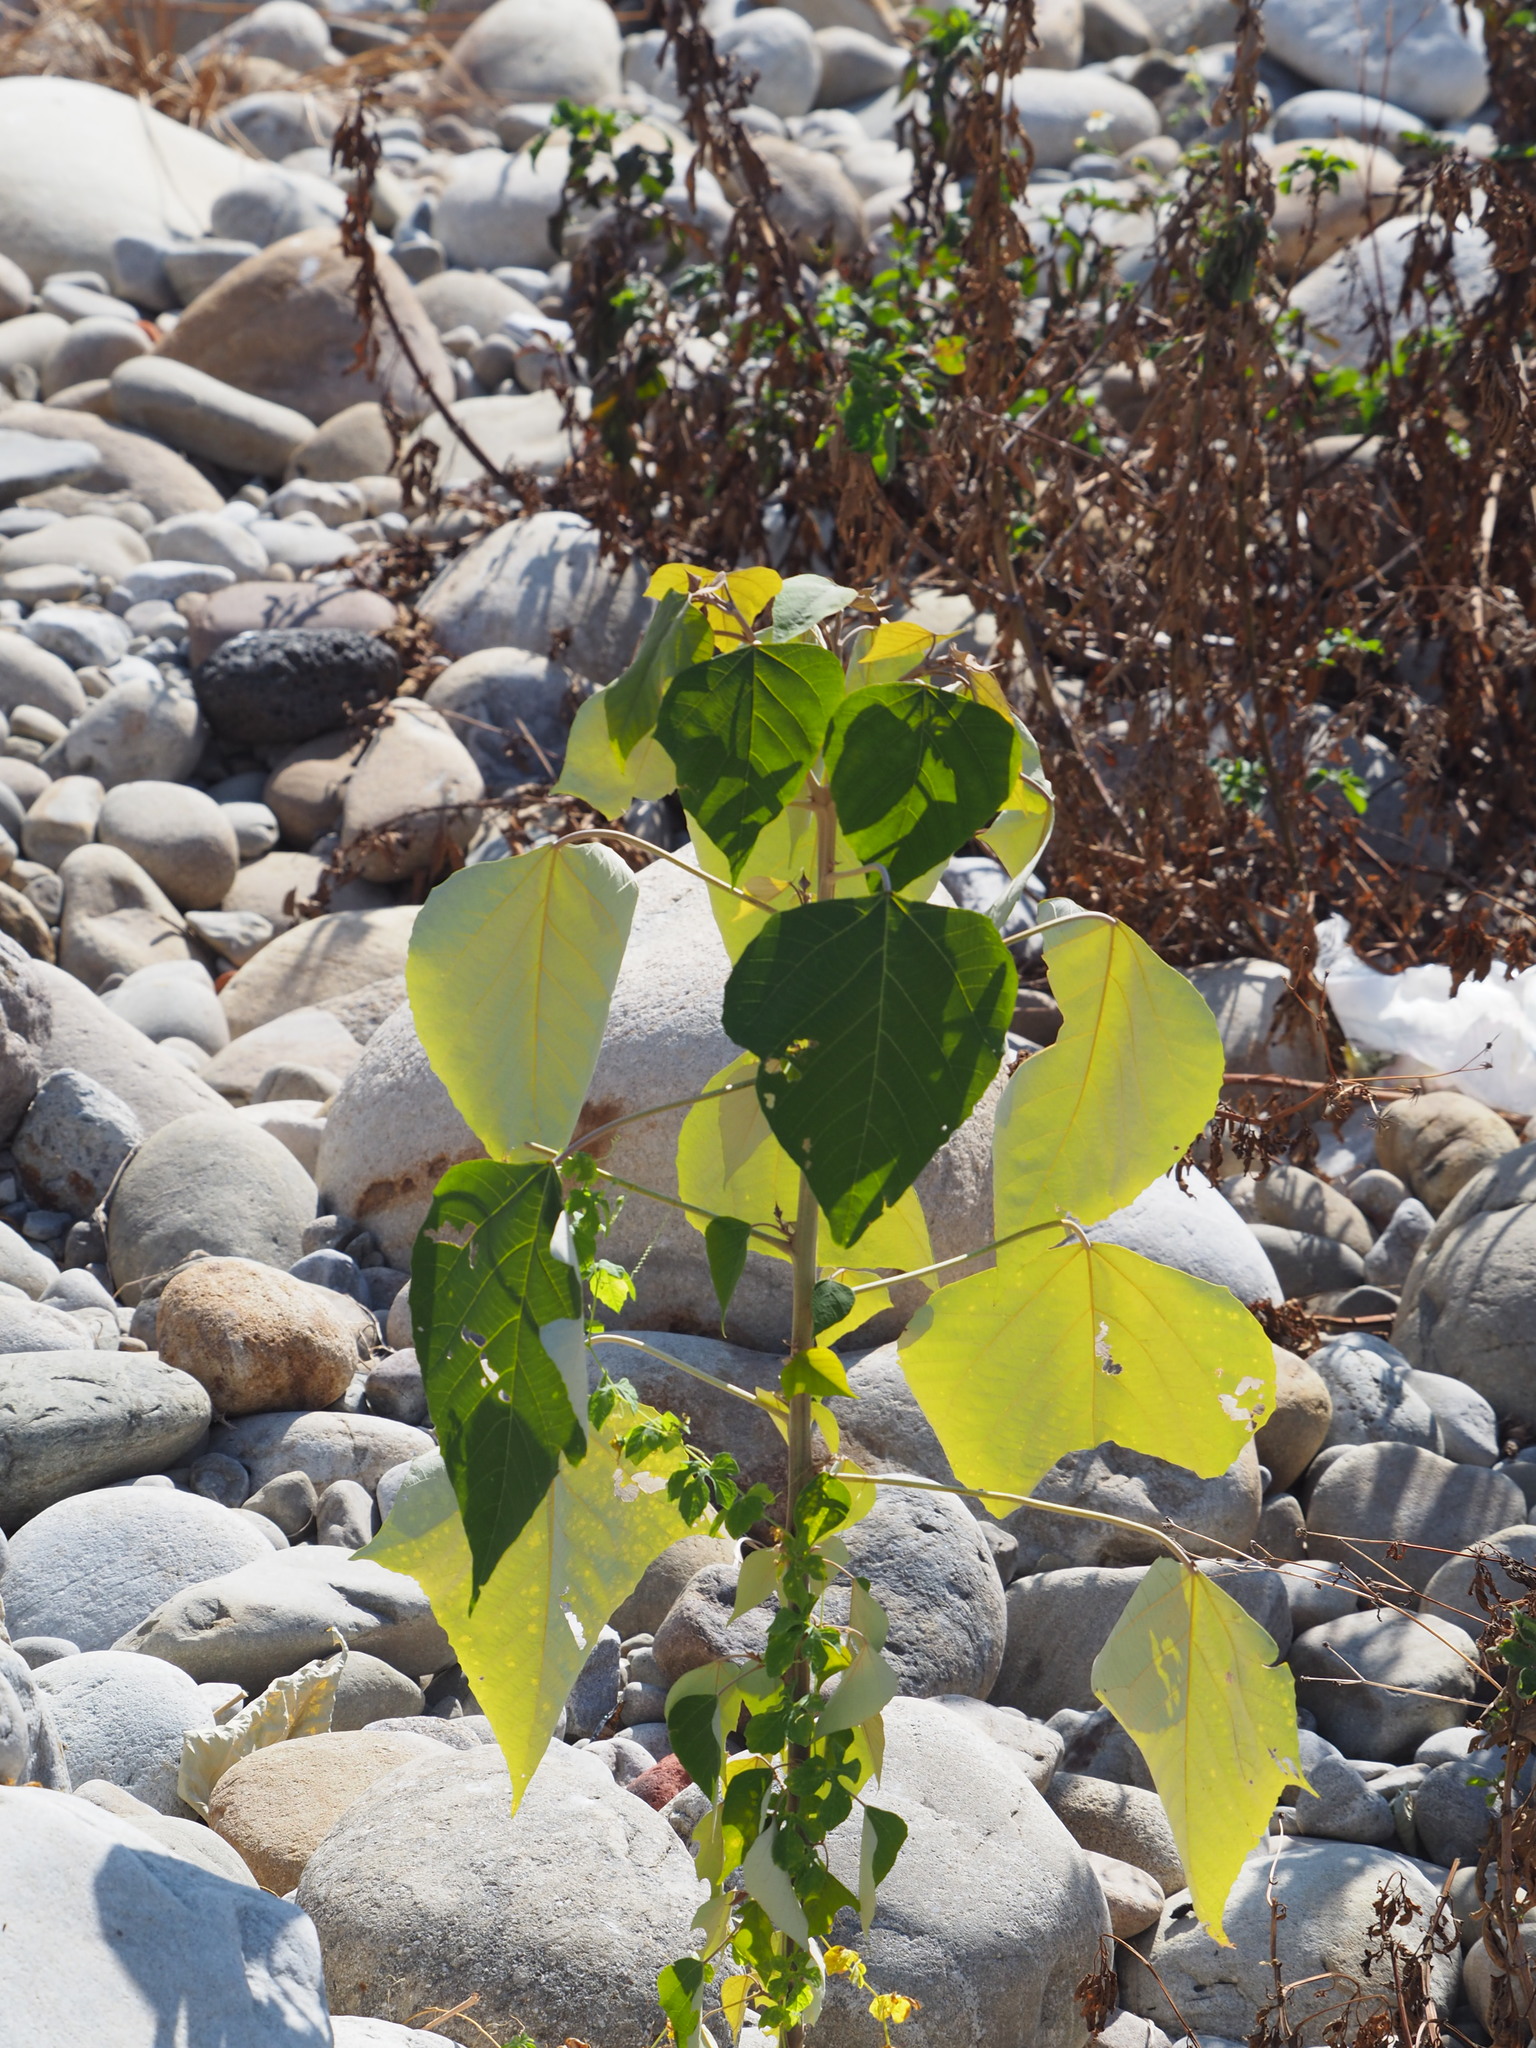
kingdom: Plantae
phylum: Tracheophyta
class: Magnoliopsida
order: Malpighiales
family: Euphorbiaceae
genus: Mallotus
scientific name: Mallotus paniculatus
